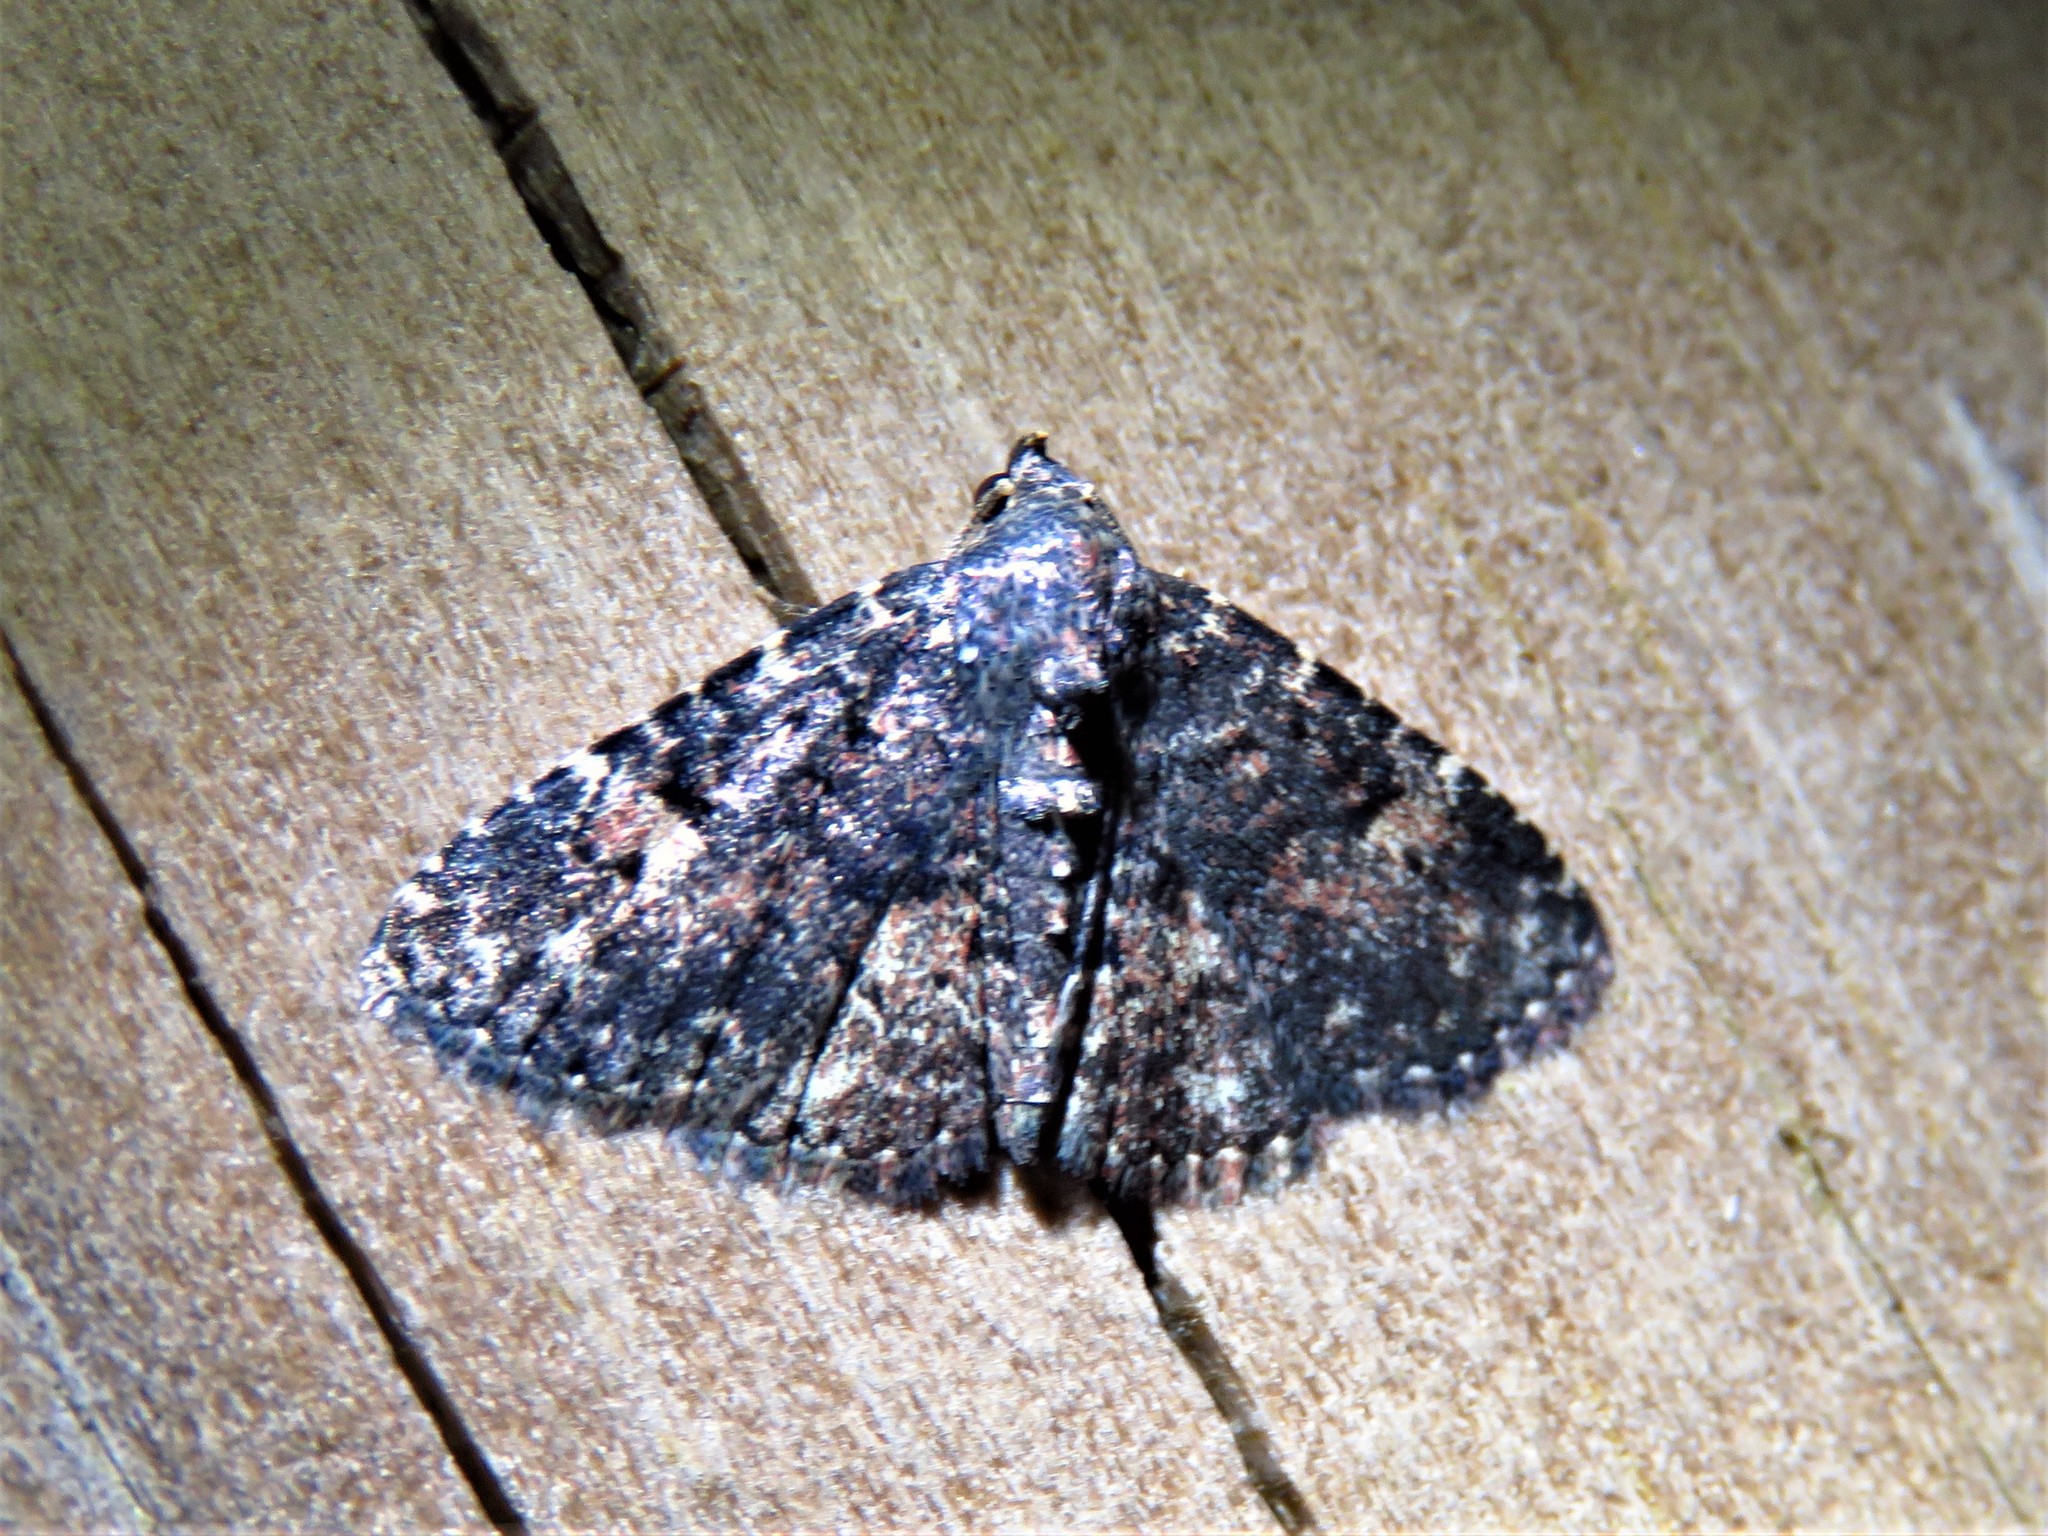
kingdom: Animalia
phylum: Arthropoda
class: Insecta
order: Lepidoptera
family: Erebidae
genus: Metalectra
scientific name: Metalectra discalis
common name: Common fungus moth
